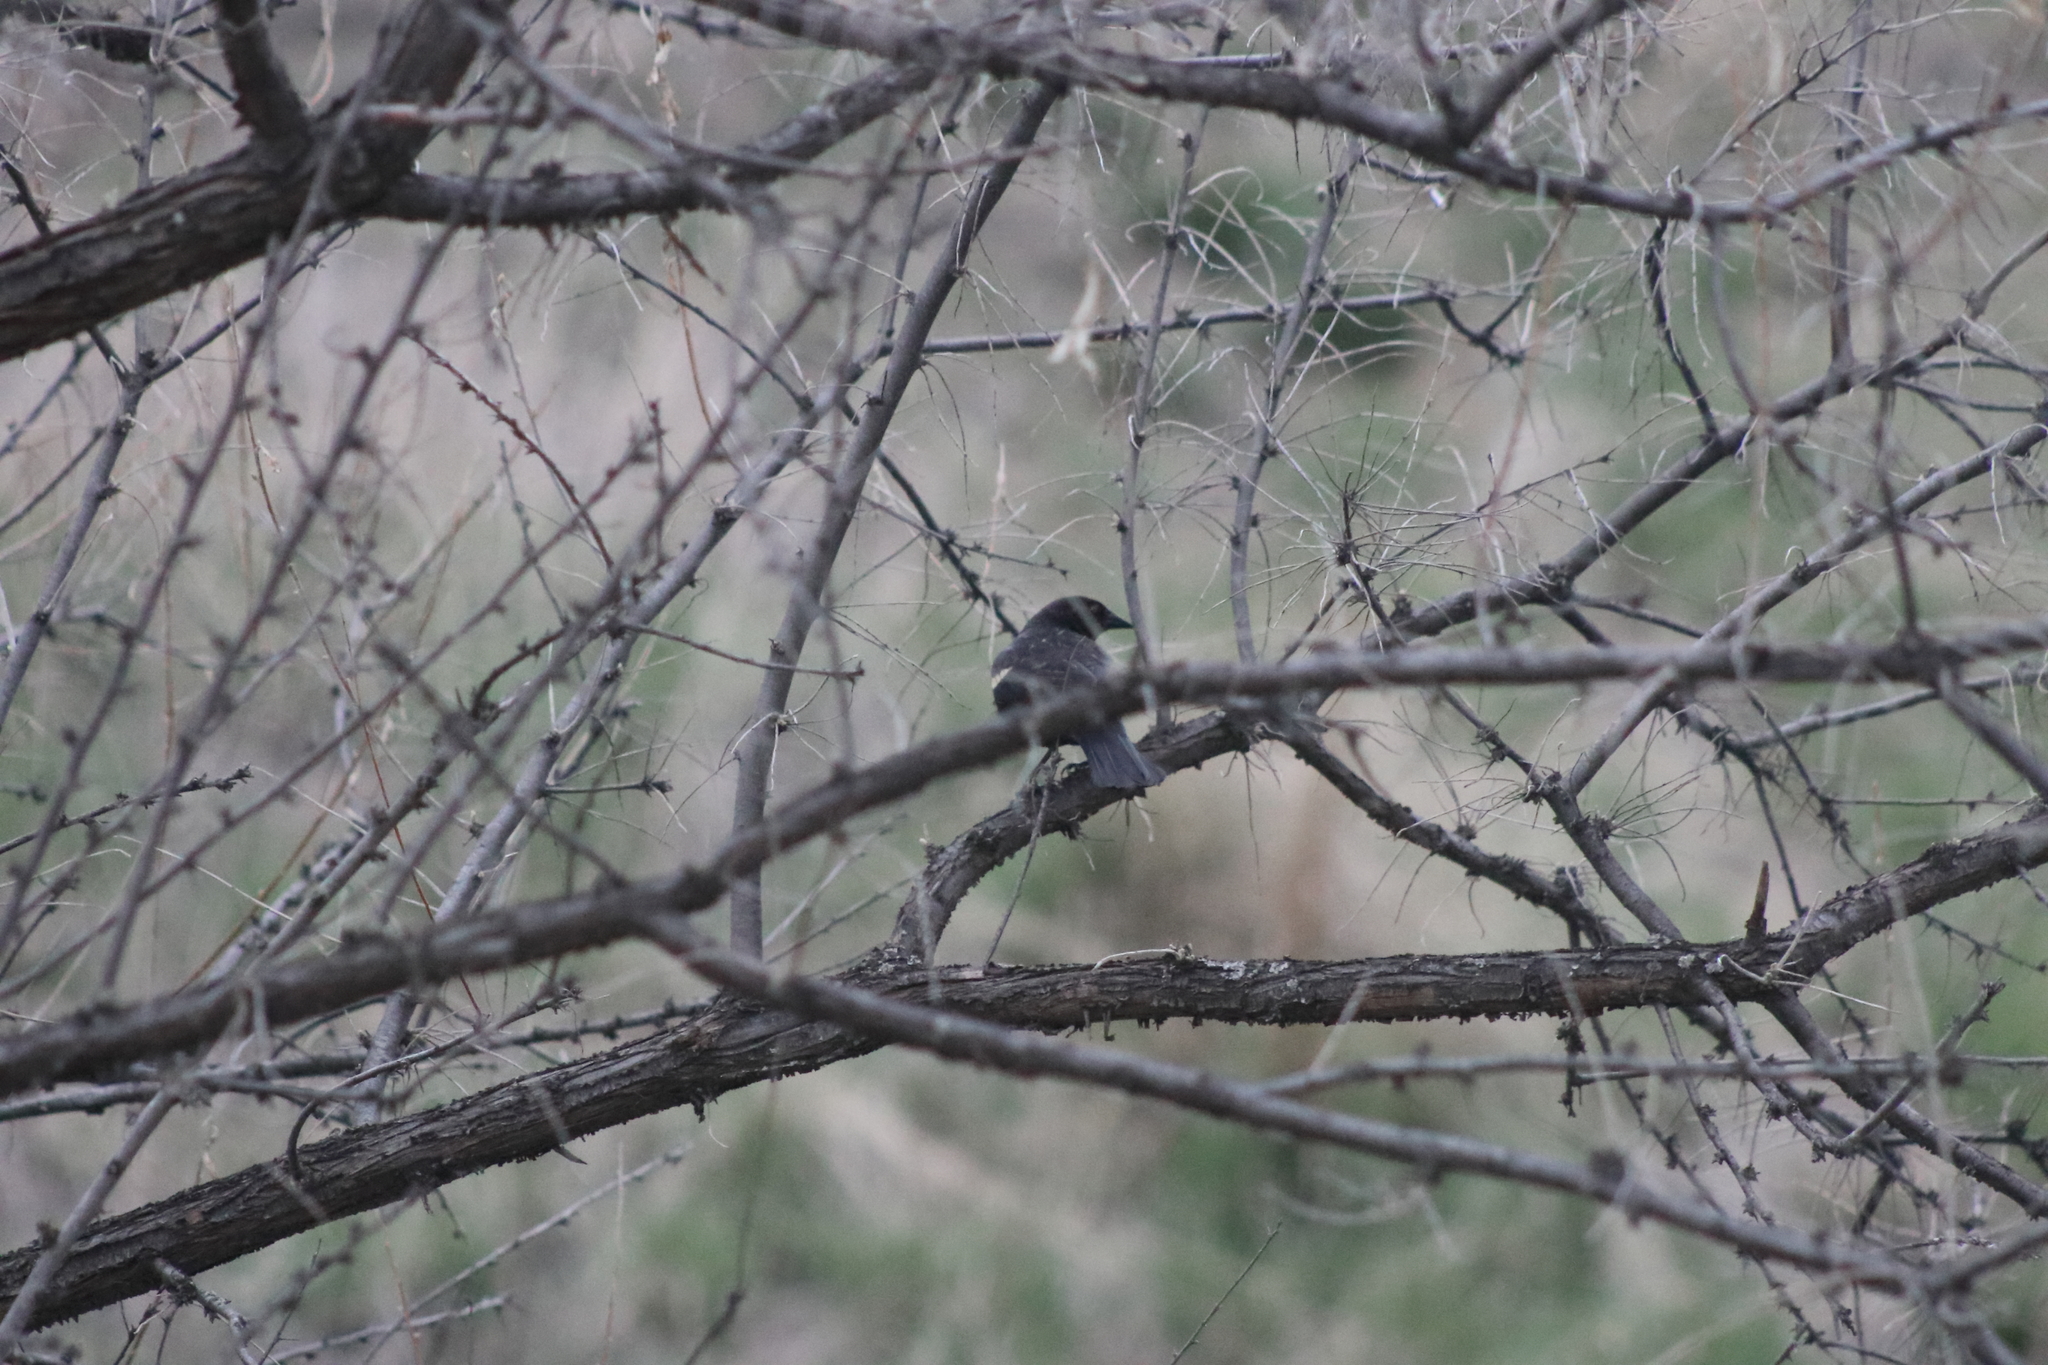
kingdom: Animalia
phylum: Chordata
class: Aves
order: Passeriformes
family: Icteridae
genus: Agelaius
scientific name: Agelaius phoeniceus
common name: Red-winged blackbird
